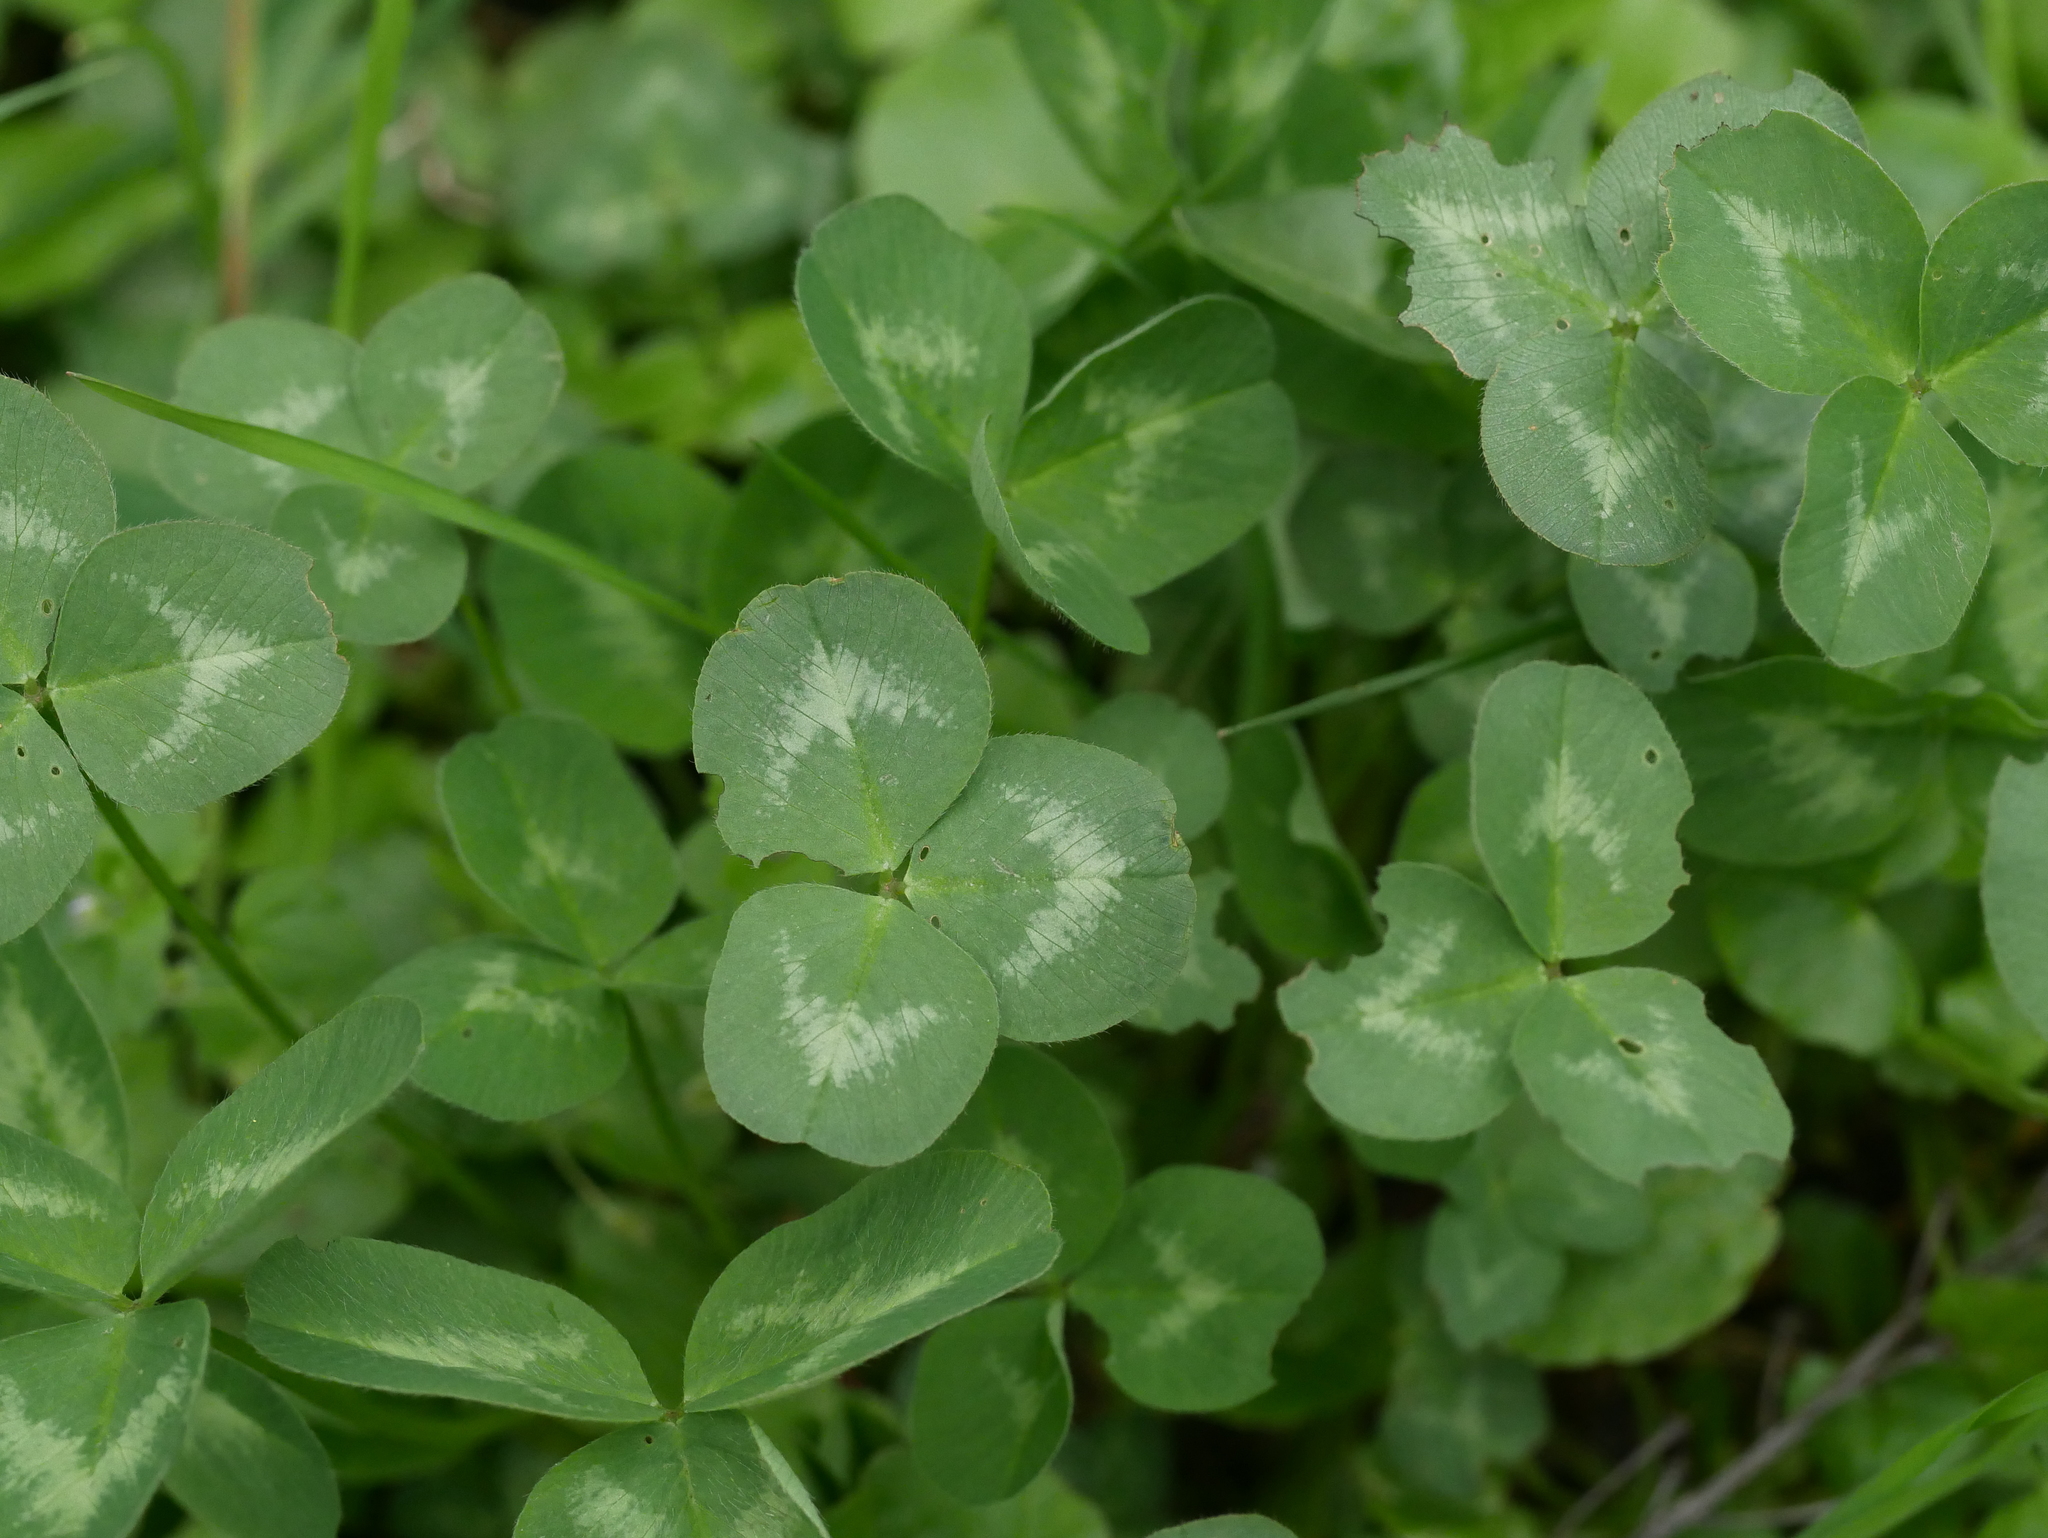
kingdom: Plantae
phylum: Tracheophyta
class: Magnoliopsida
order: Fabales
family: Fabaceae
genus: Trifolium
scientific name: Trifolium repens
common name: White clover
